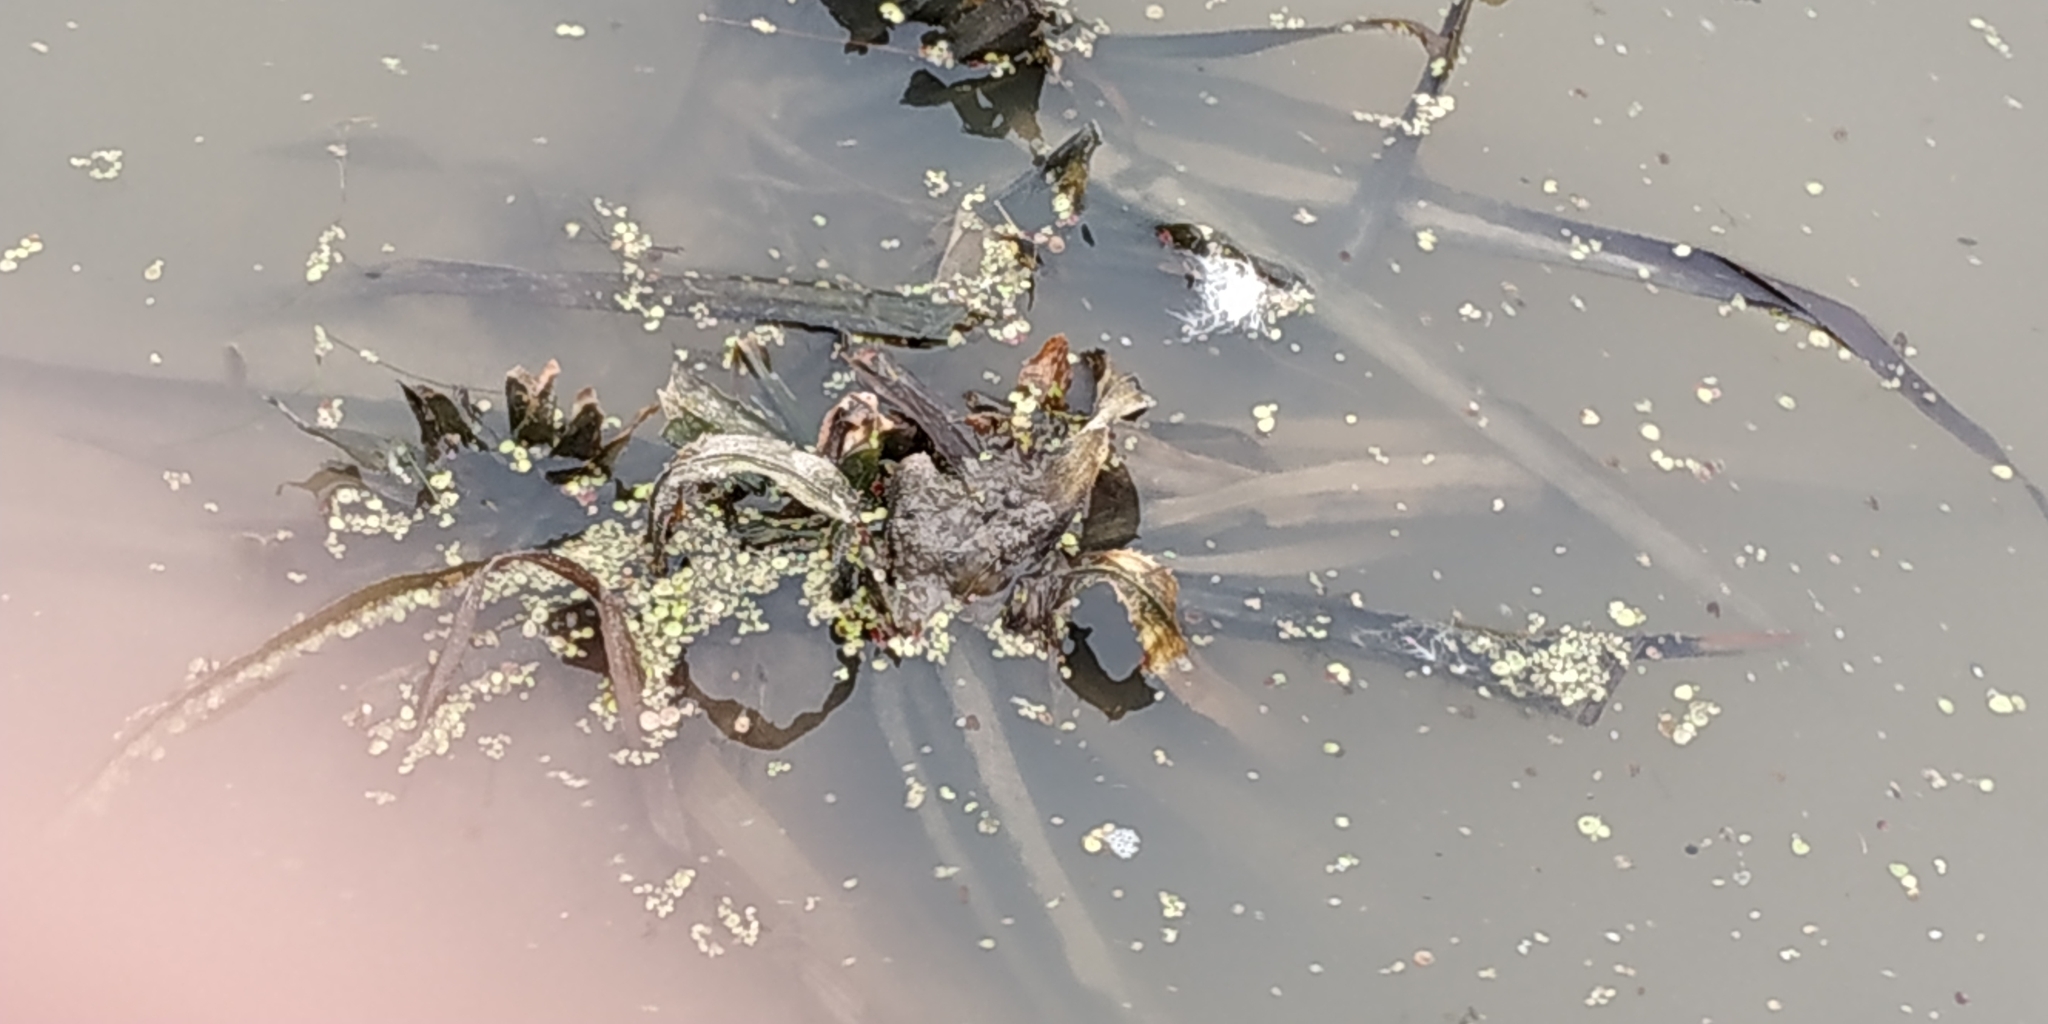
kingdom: Plantae
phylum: Tracheophyta
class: Liliopsida
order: Alismatales
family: Hydrocharitaceae
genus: Stratiotes
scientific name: Stratiotes aloides
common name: Water-soldier
